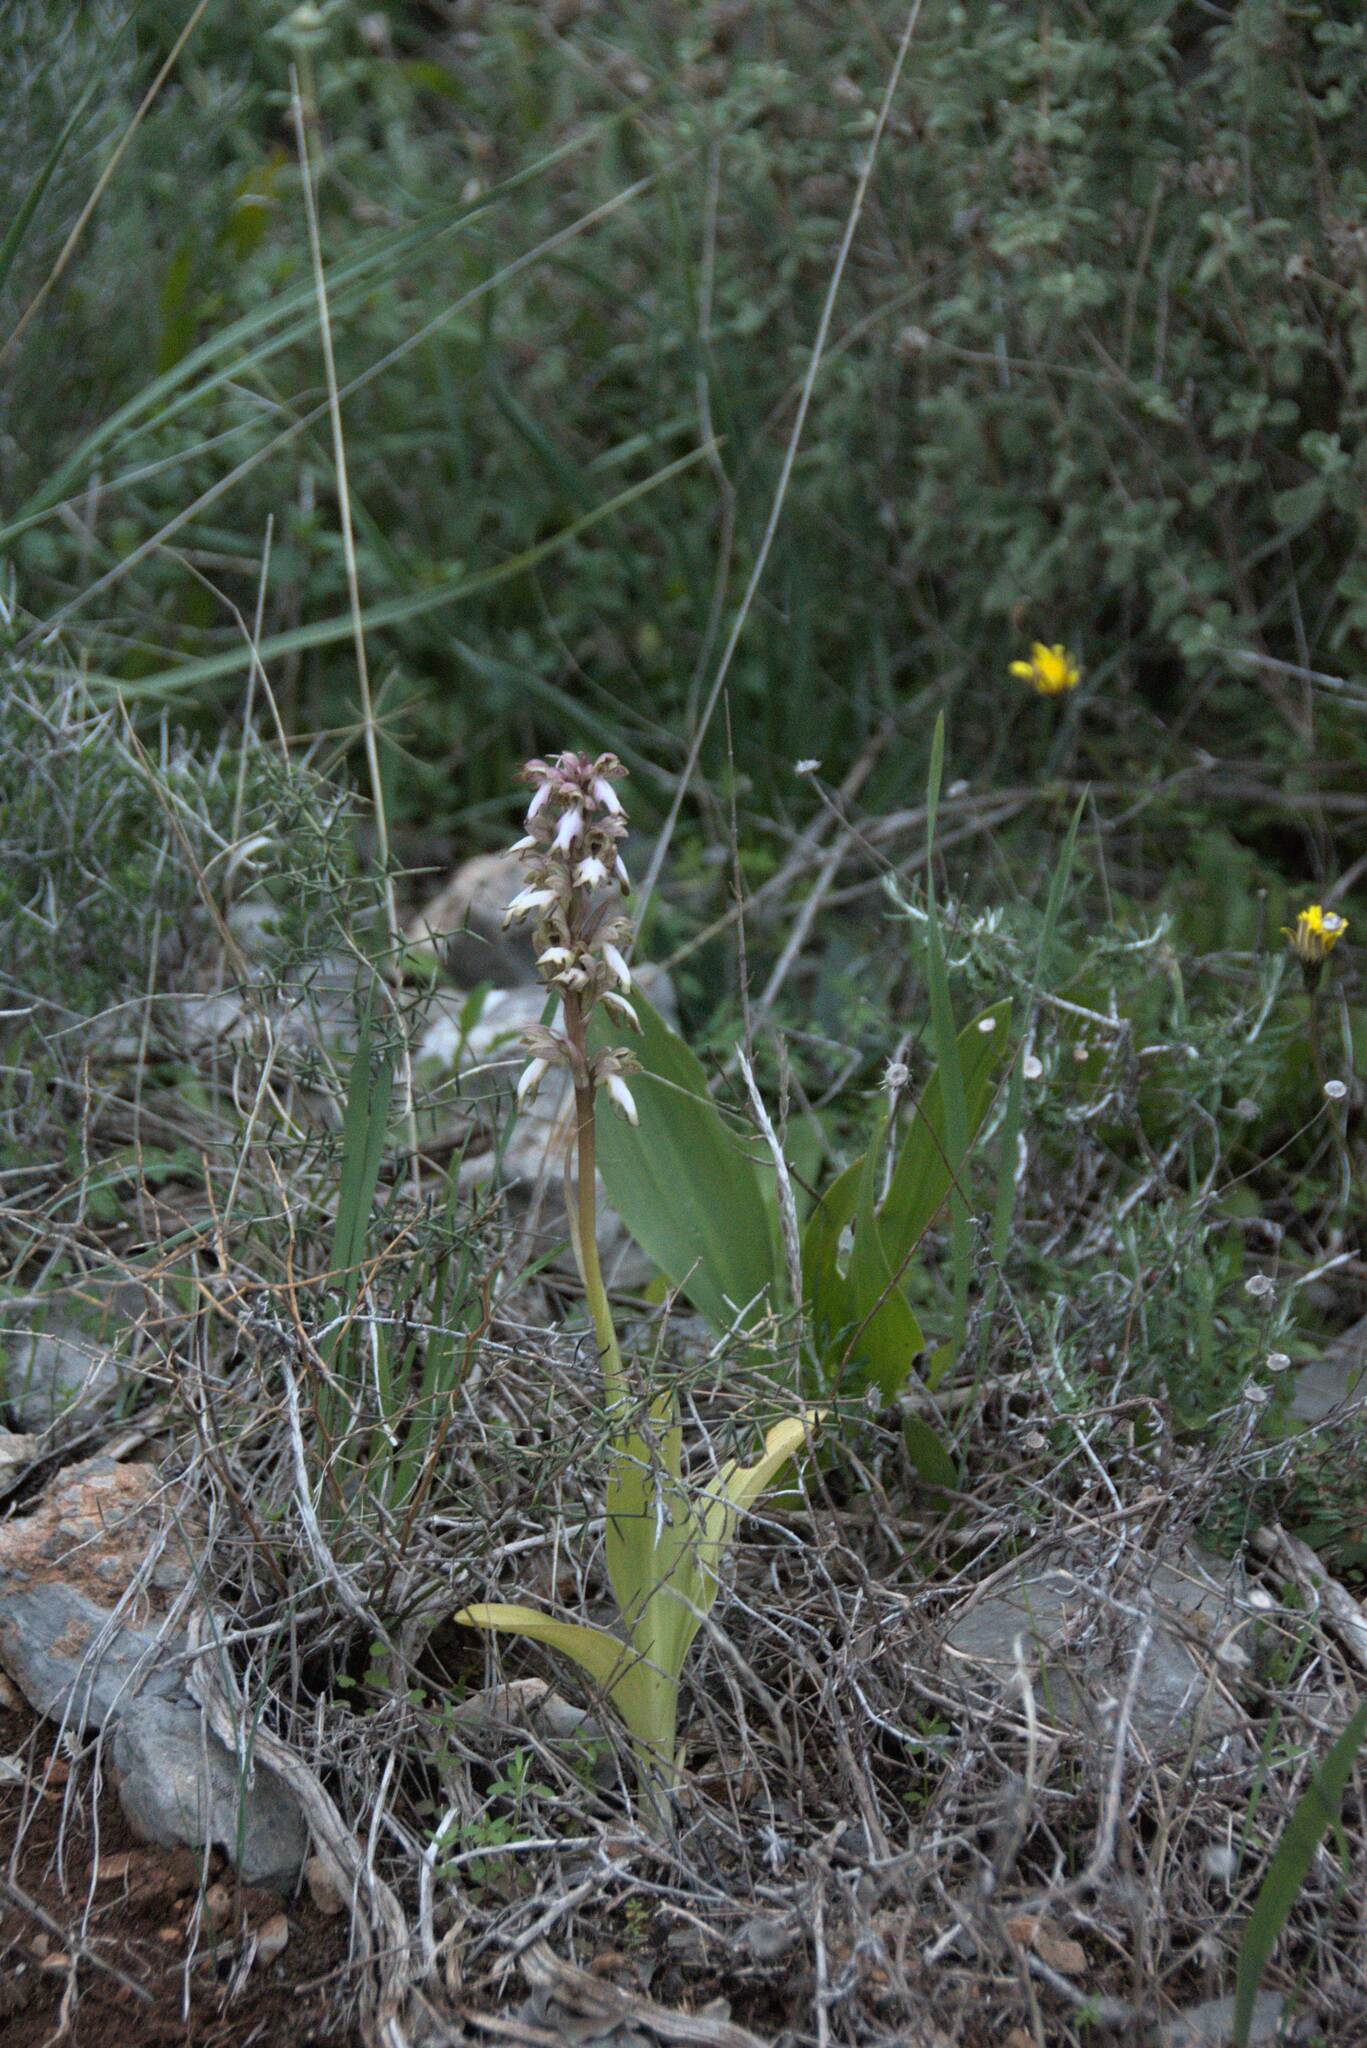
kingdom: Plantae
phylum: Tracheophyta
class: Liliopsida
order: Asparagales
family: Orchidaceae
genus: Himantoglossum
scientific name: Himantoglossum robertianum
